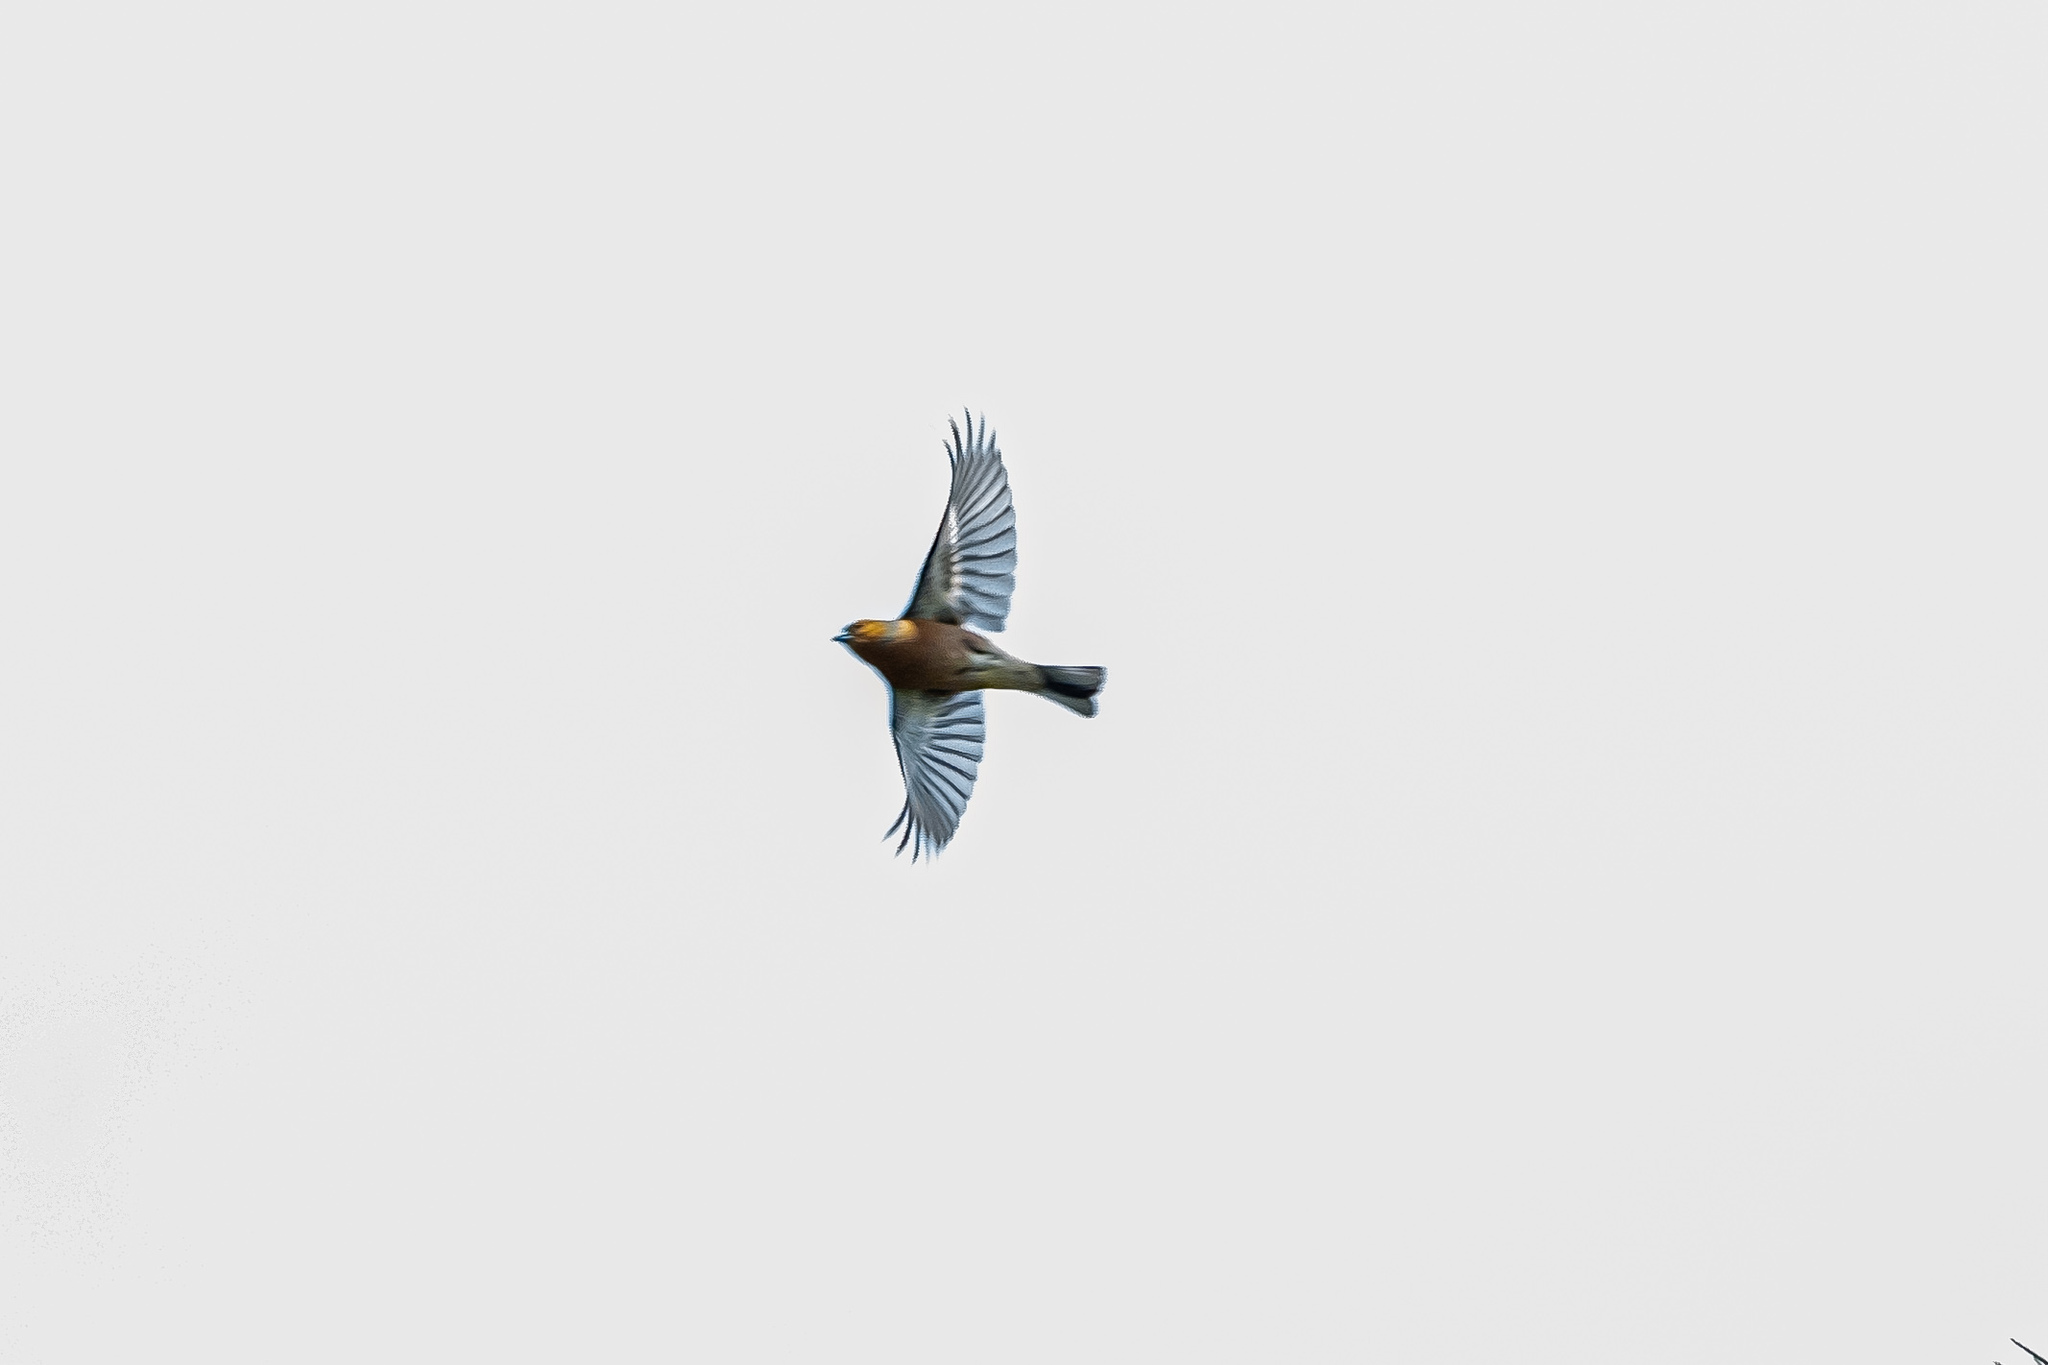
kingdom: Animalia
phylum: Chordata
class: Aves
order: Passeriformes
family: Fringillidae
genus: Fringilla
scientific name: Fringilla coelebs
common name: Common chaffinch
